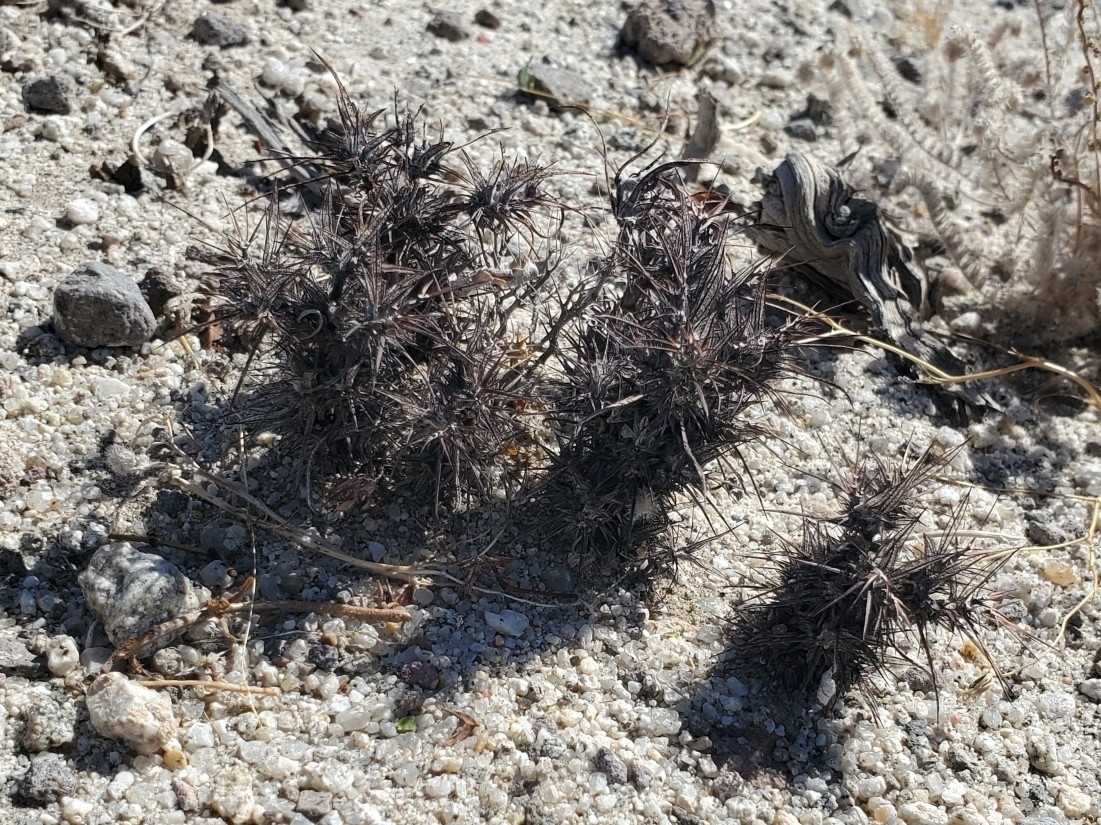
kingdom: Plantae
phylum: Tracheophyta
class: Magnoliopsida
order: Caryophyllales
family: Polygonaceae
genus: Chorizanthe
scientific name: Chorizanthe rigida
